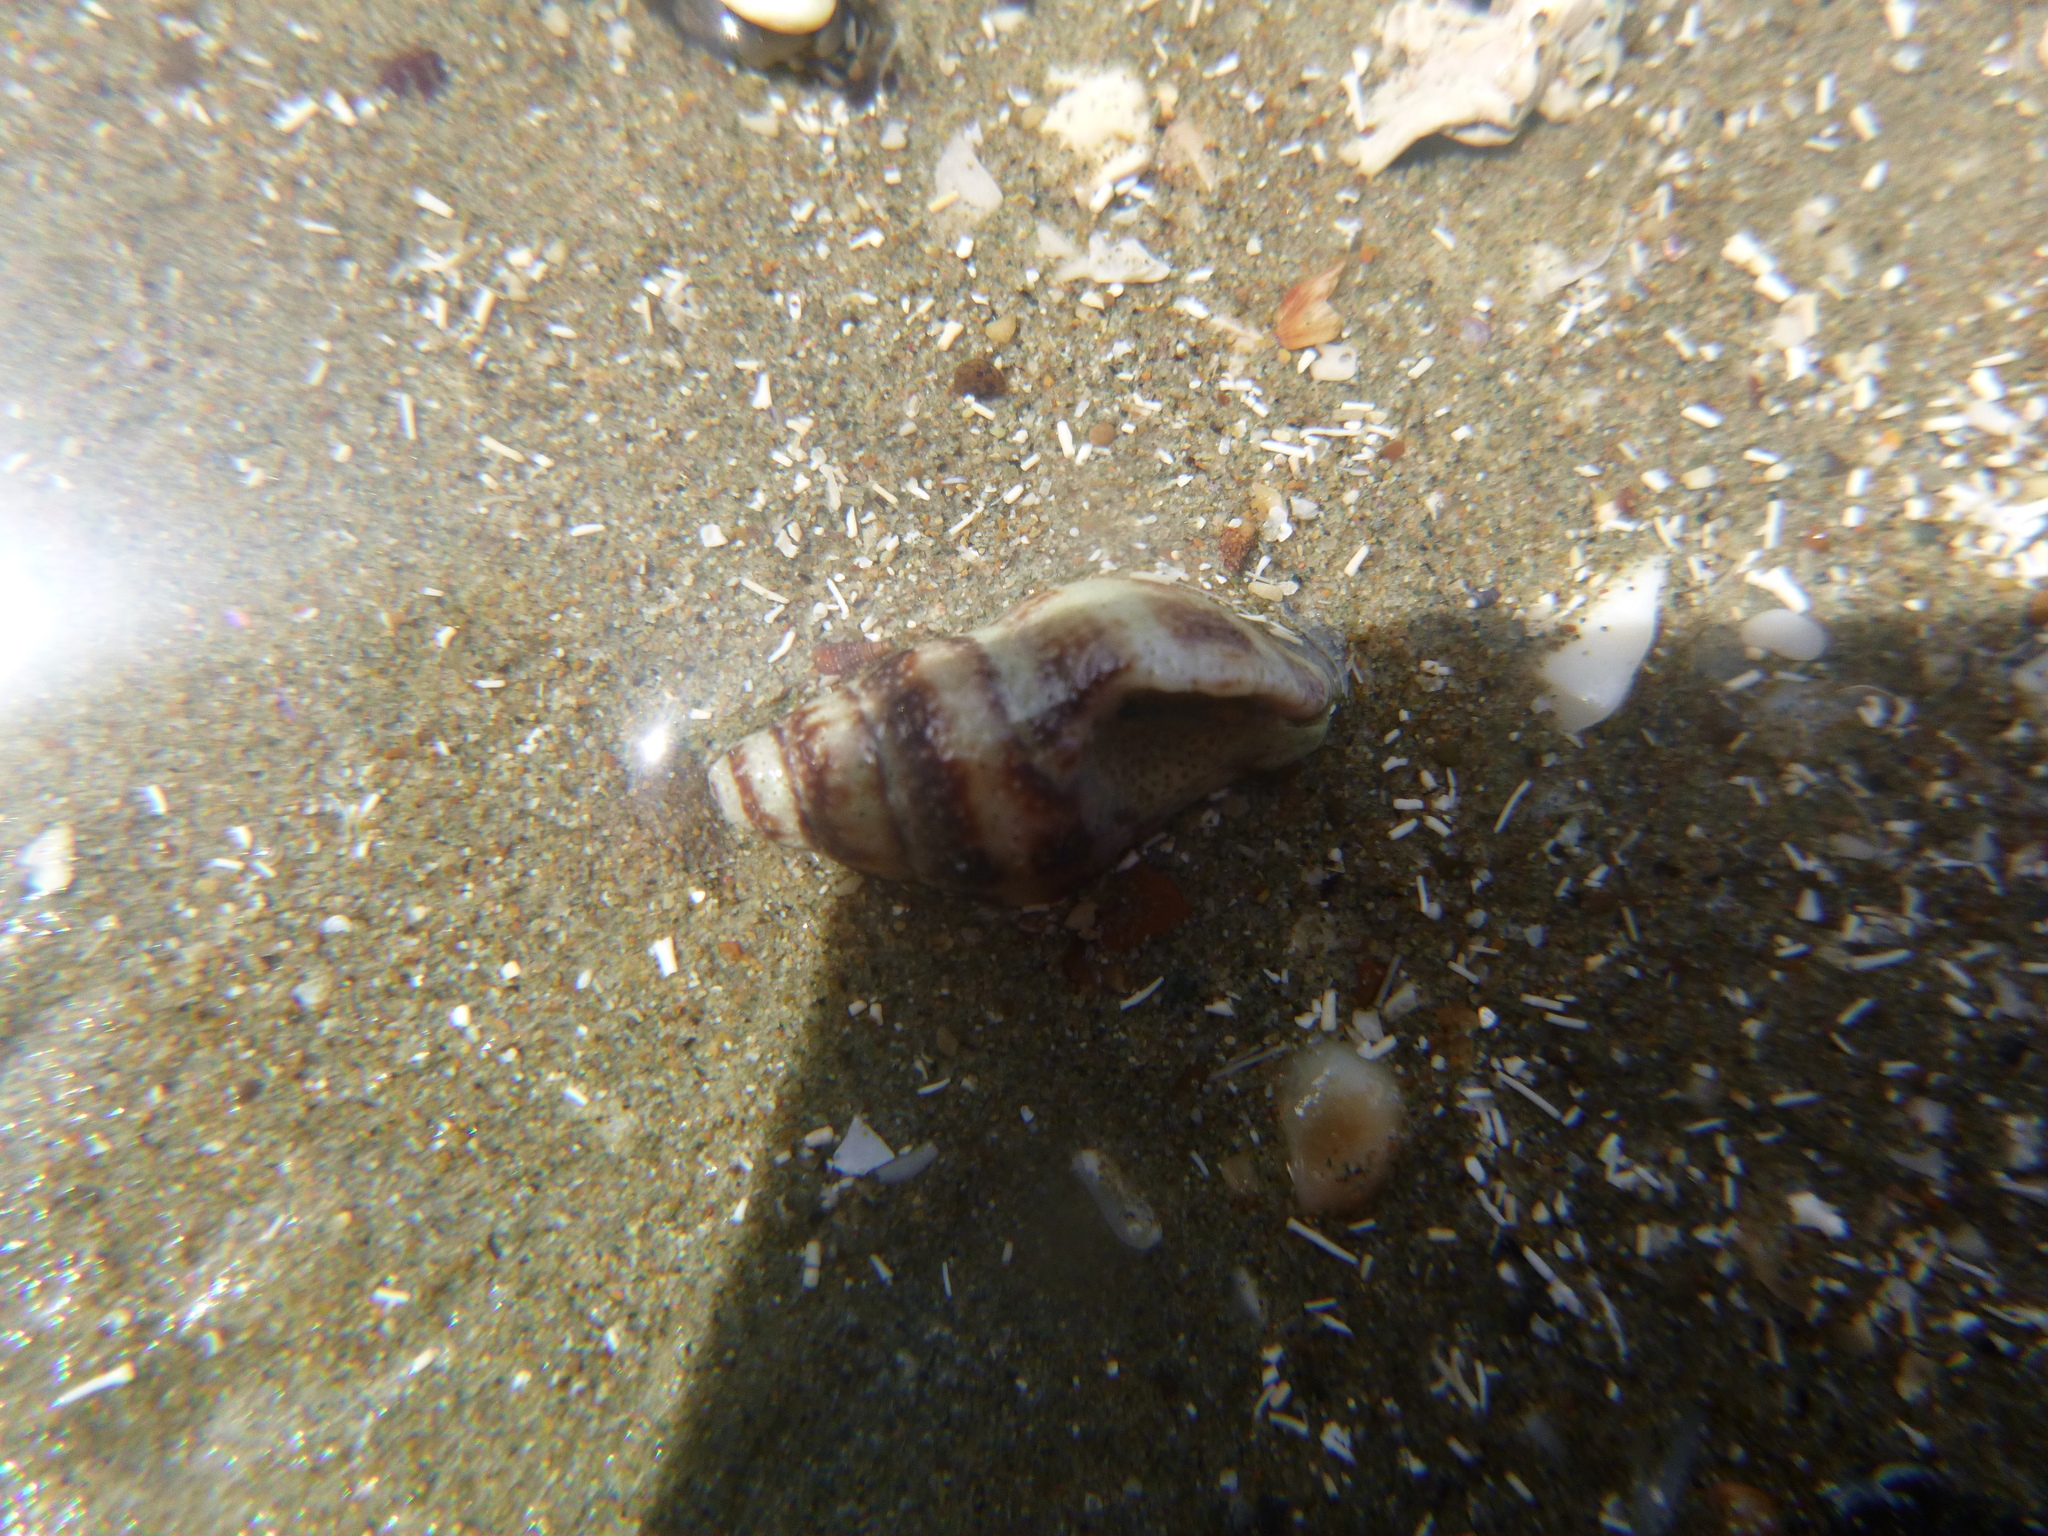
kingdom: Animalia
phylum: Mollusca
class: Gastropoda
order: Neogastropoda
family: Tudiclidae
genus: Buccinulum
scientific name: Buccinulum vittatum
